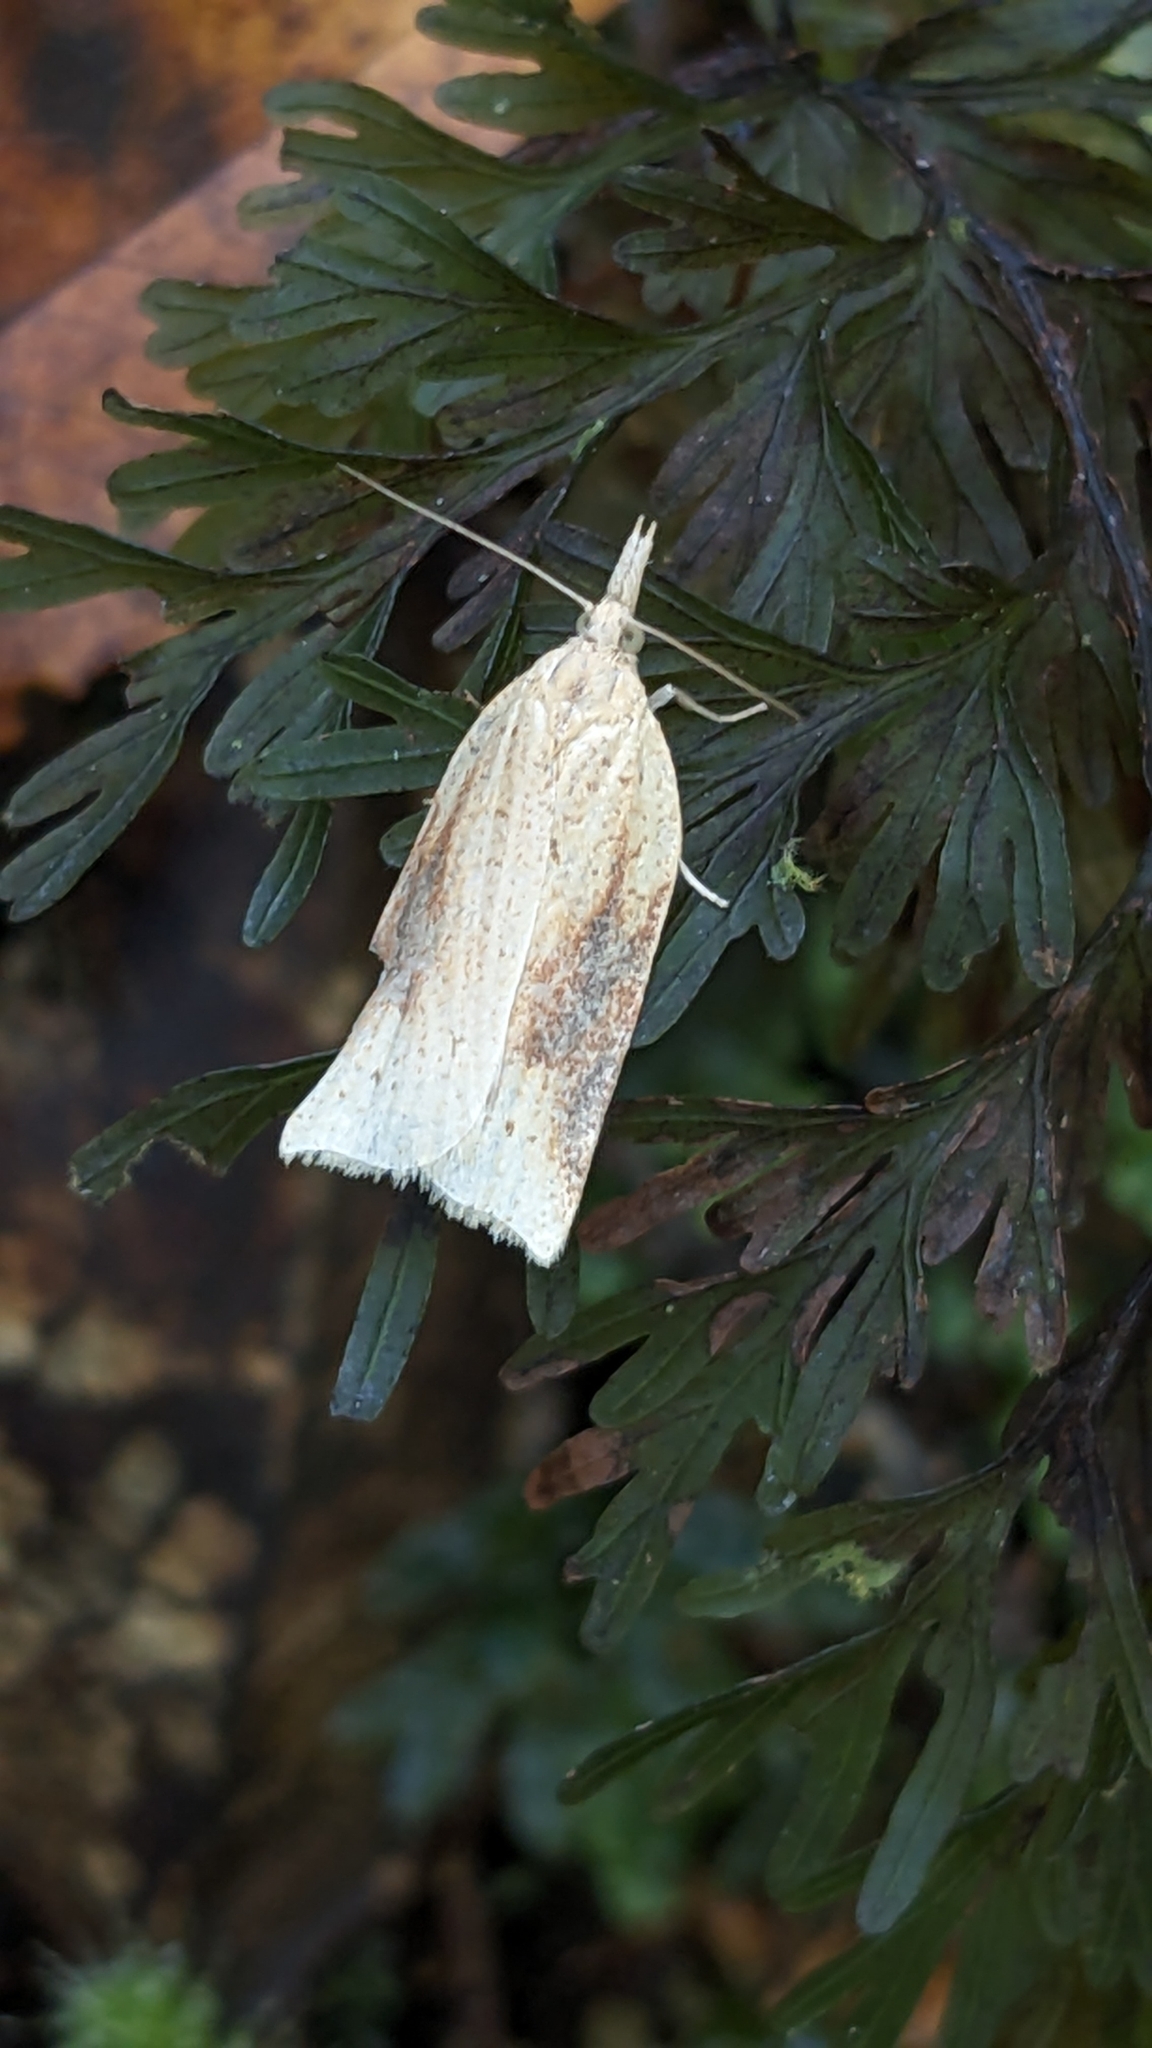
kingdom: Animalia
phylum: Arthropoda
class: Insecta
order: Lepidoptera
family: Tortricidae
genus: Apoctena
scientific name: Apoctena conditana
